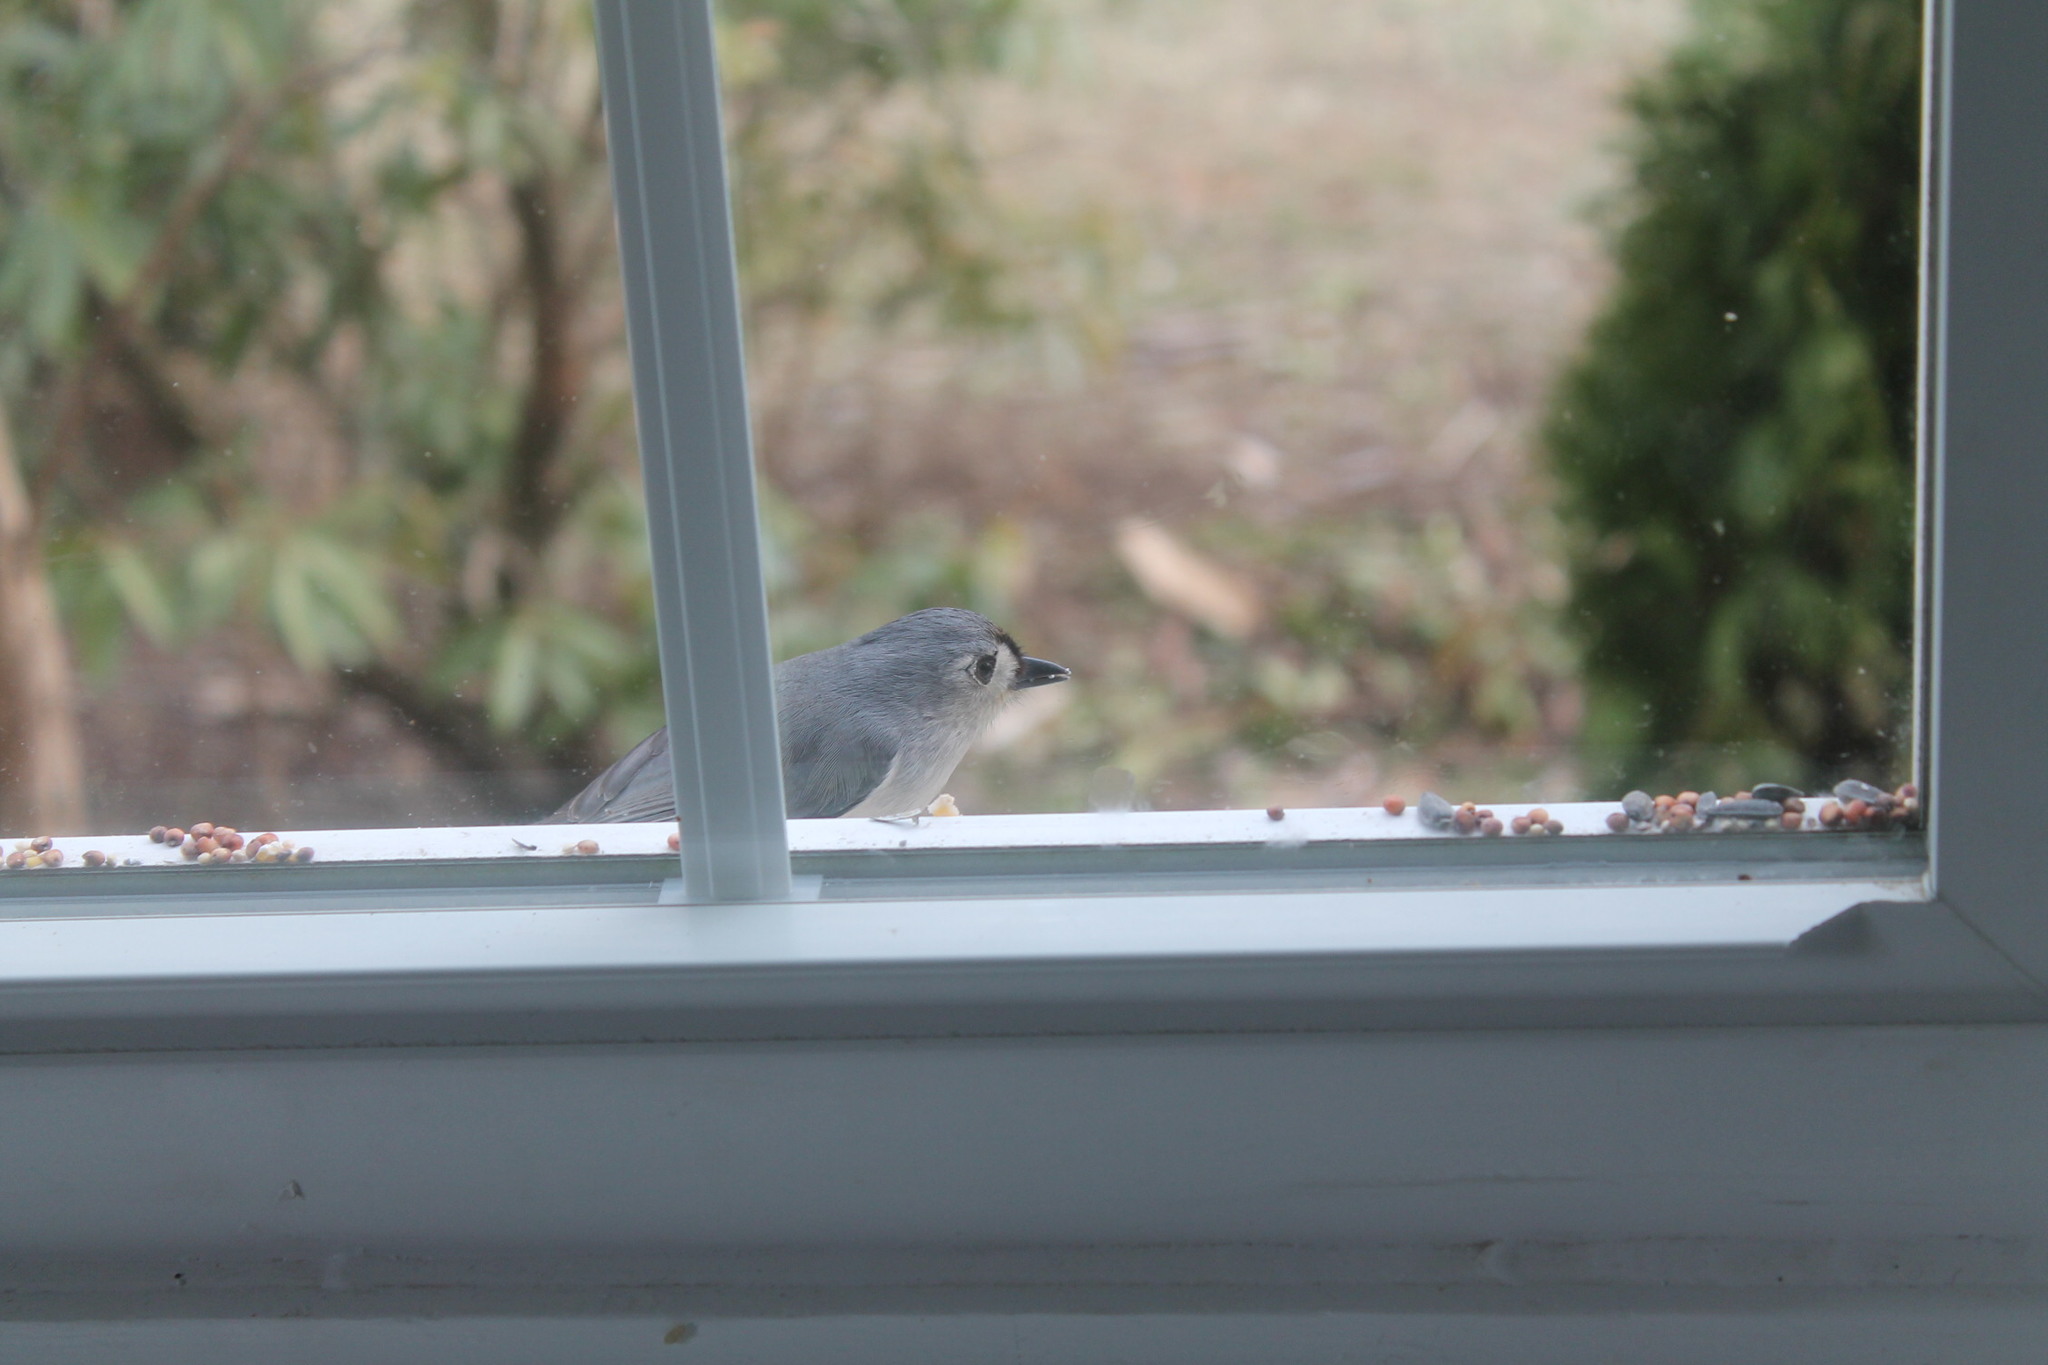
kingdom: Animalia
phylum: Chordata
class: Aves
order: Passeriformes
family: Paridae
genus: Baeolophus
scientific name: Baeolophus bicolor
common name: Tufted titmouse
